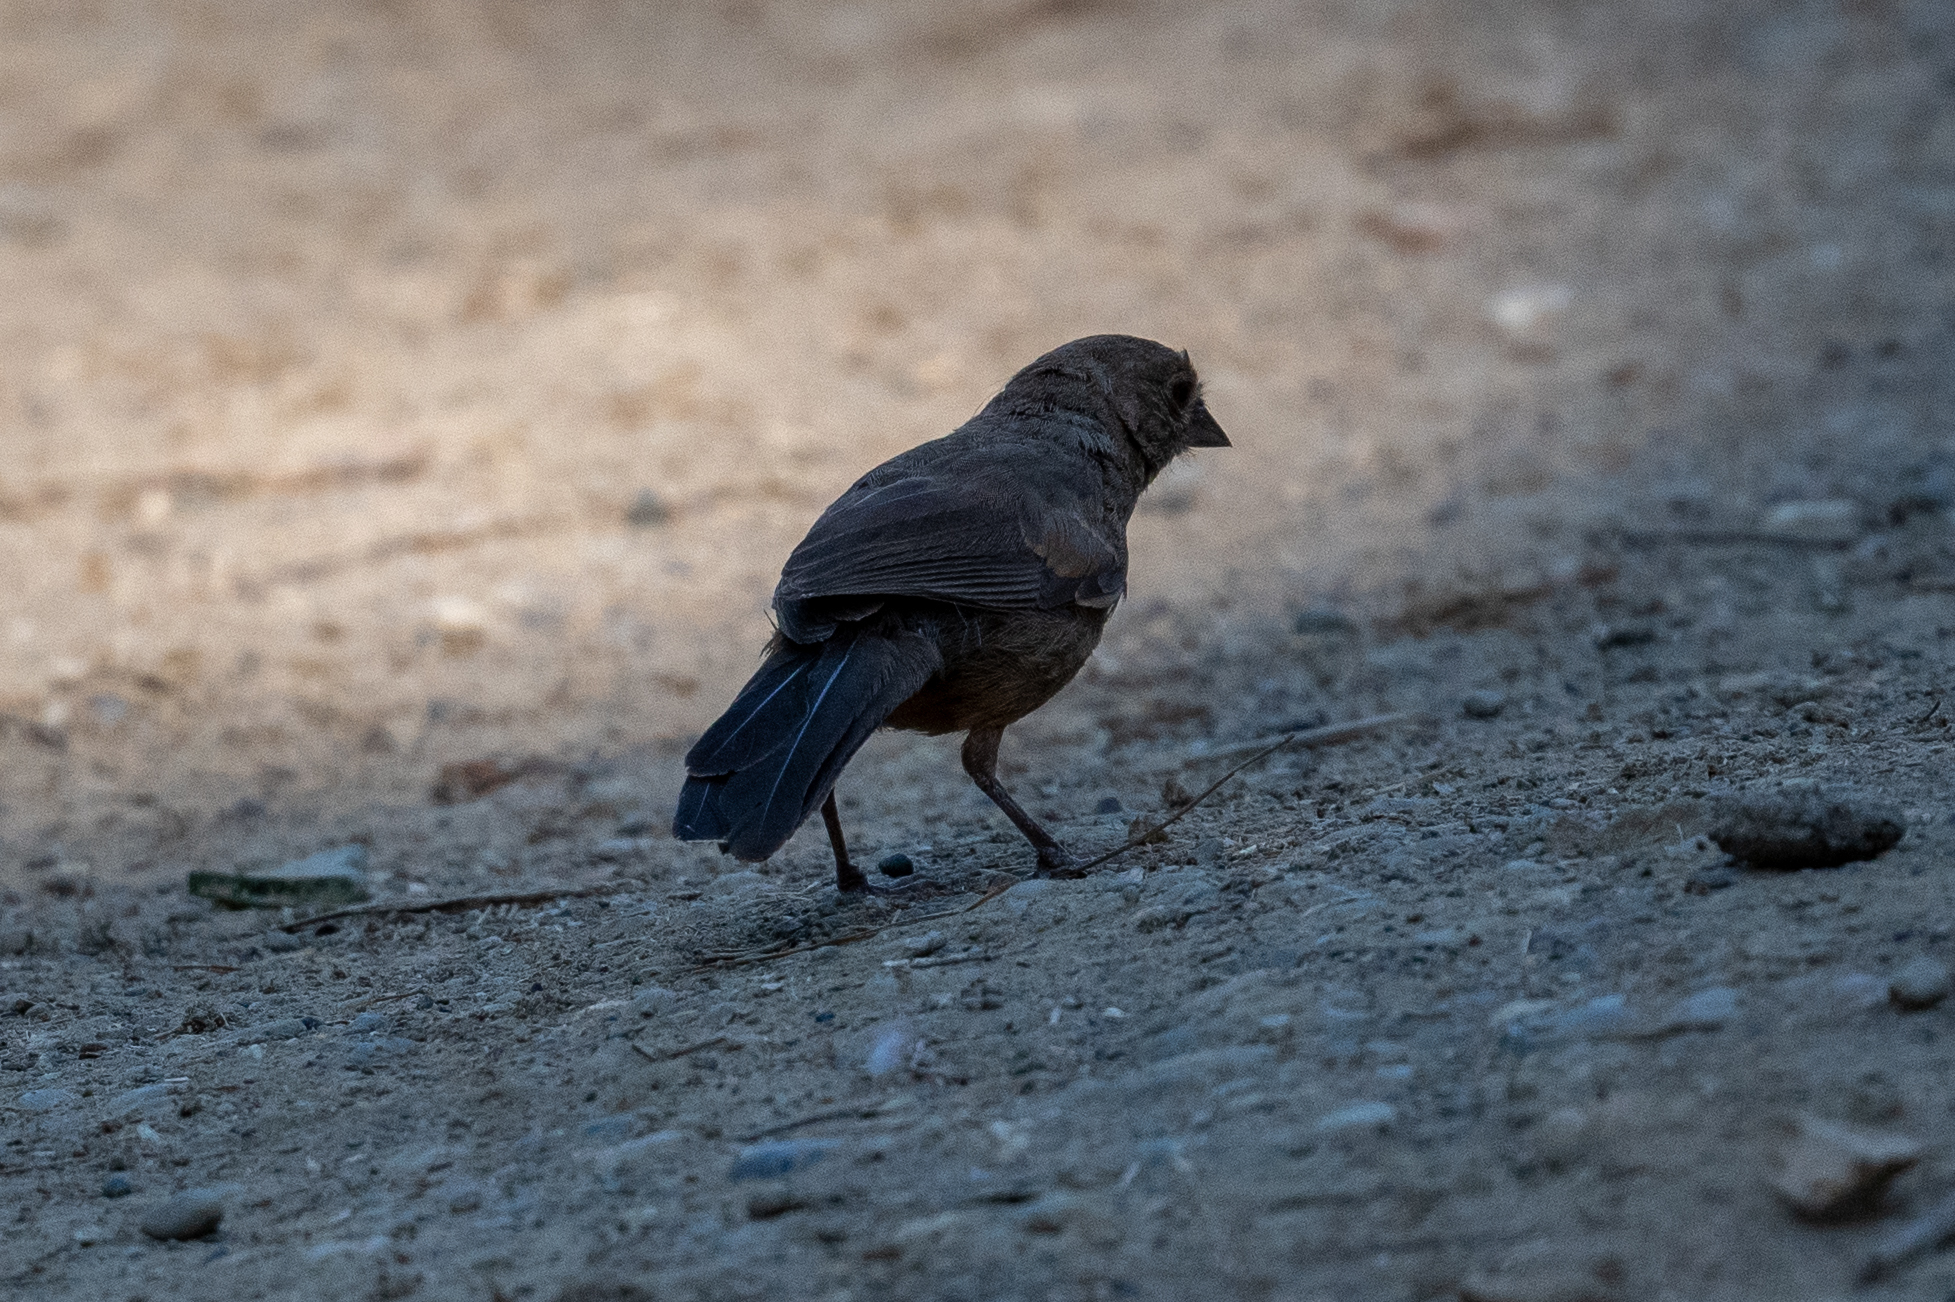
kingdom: Animalia
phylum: Chordata
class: Aves
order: Passeriformes
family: Passerellidae
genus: Melozone
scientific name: Melozone crissalis
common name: California towhee
